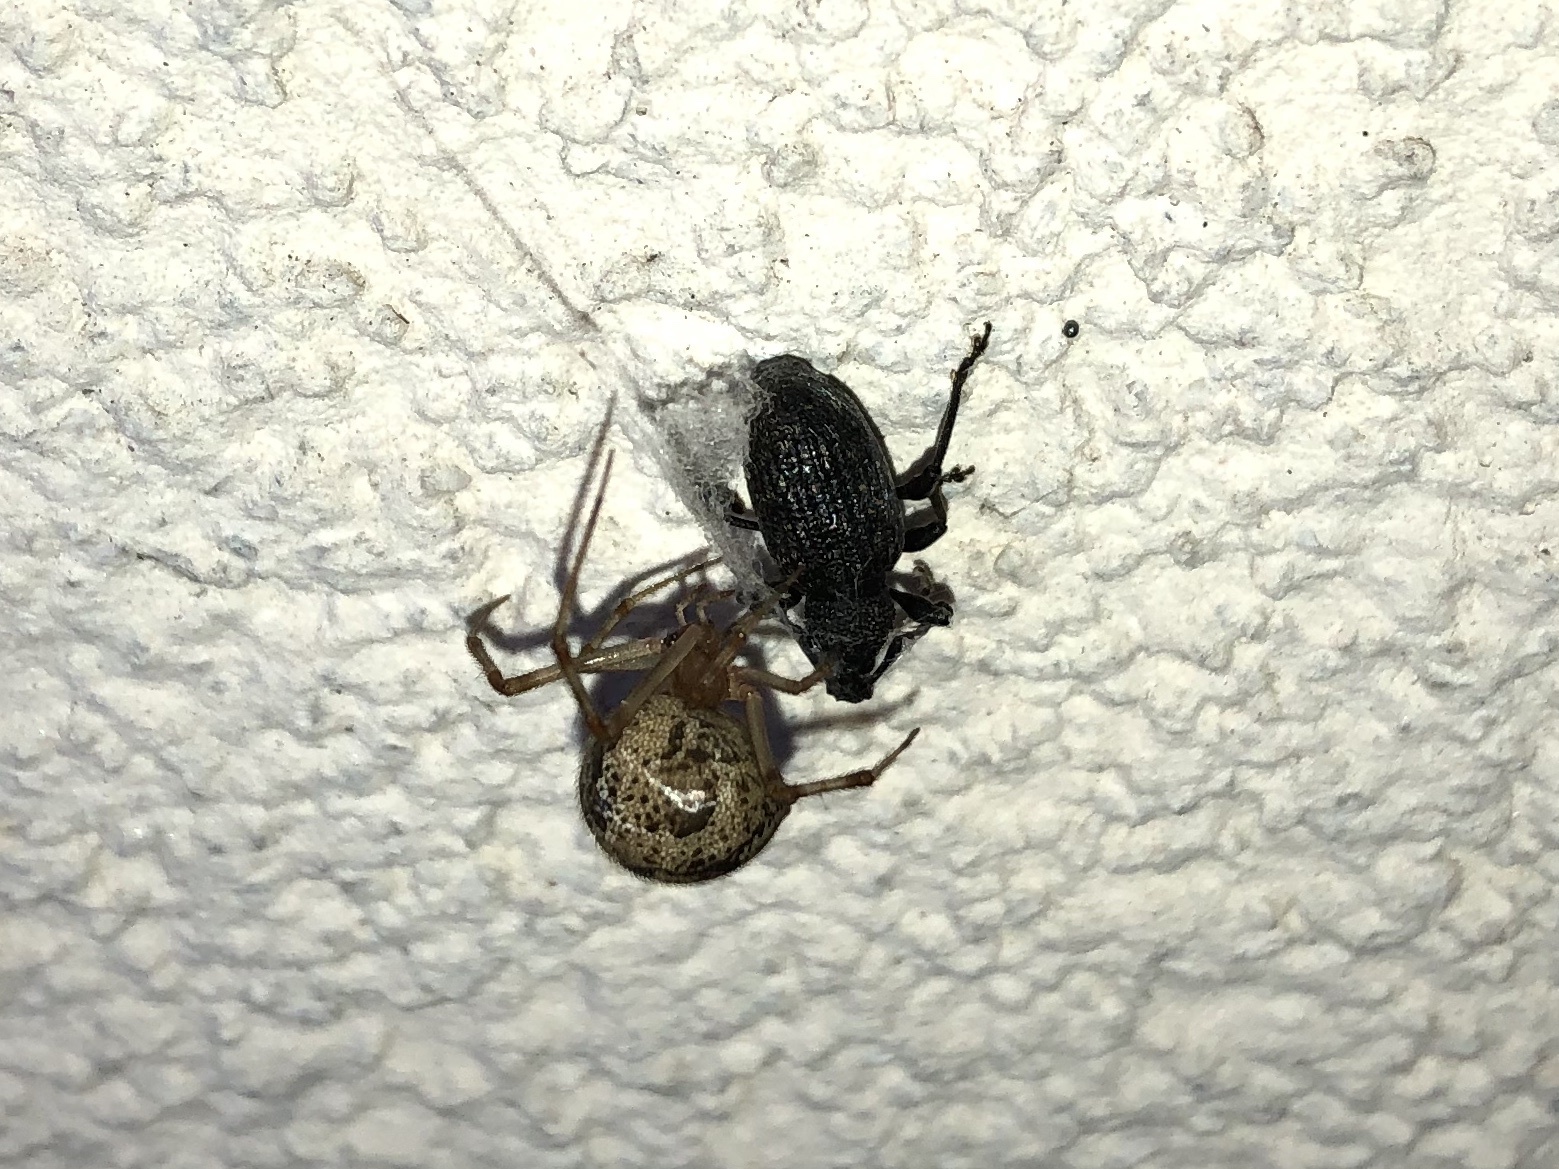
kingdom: Animalia
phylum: Arthropoda
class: Arachnida
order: Araneae
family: Theridiidae
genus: Parasteatoda
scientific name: Parasteatoda tepidariorum
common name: Common house spider
